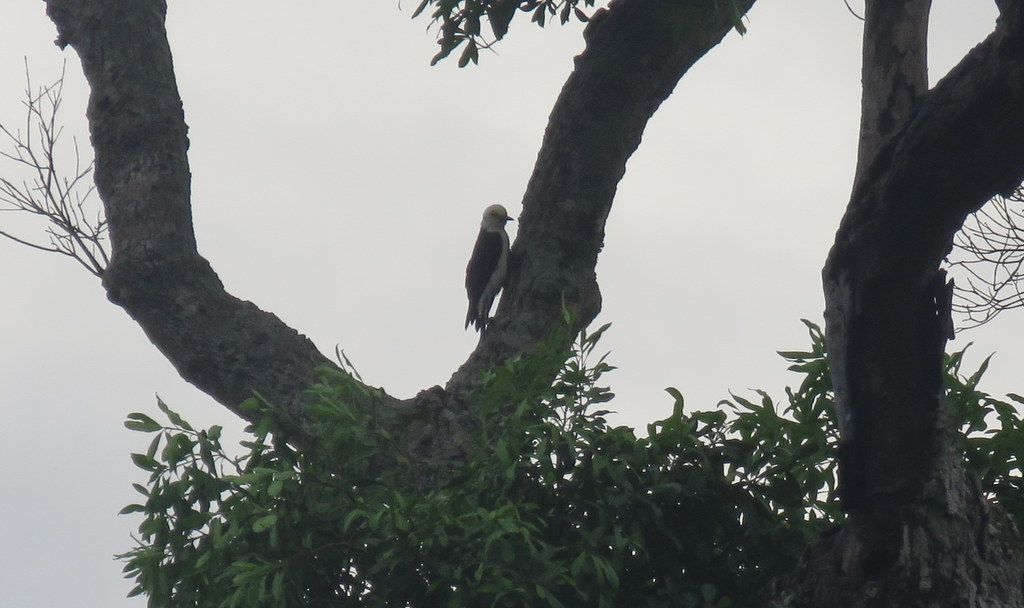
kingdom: Animalia
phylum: Chordata
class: Aves
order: Piciformes
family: Picidae
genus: Melanerpes
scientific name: Melanerpes candidus
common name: White woodpecker
